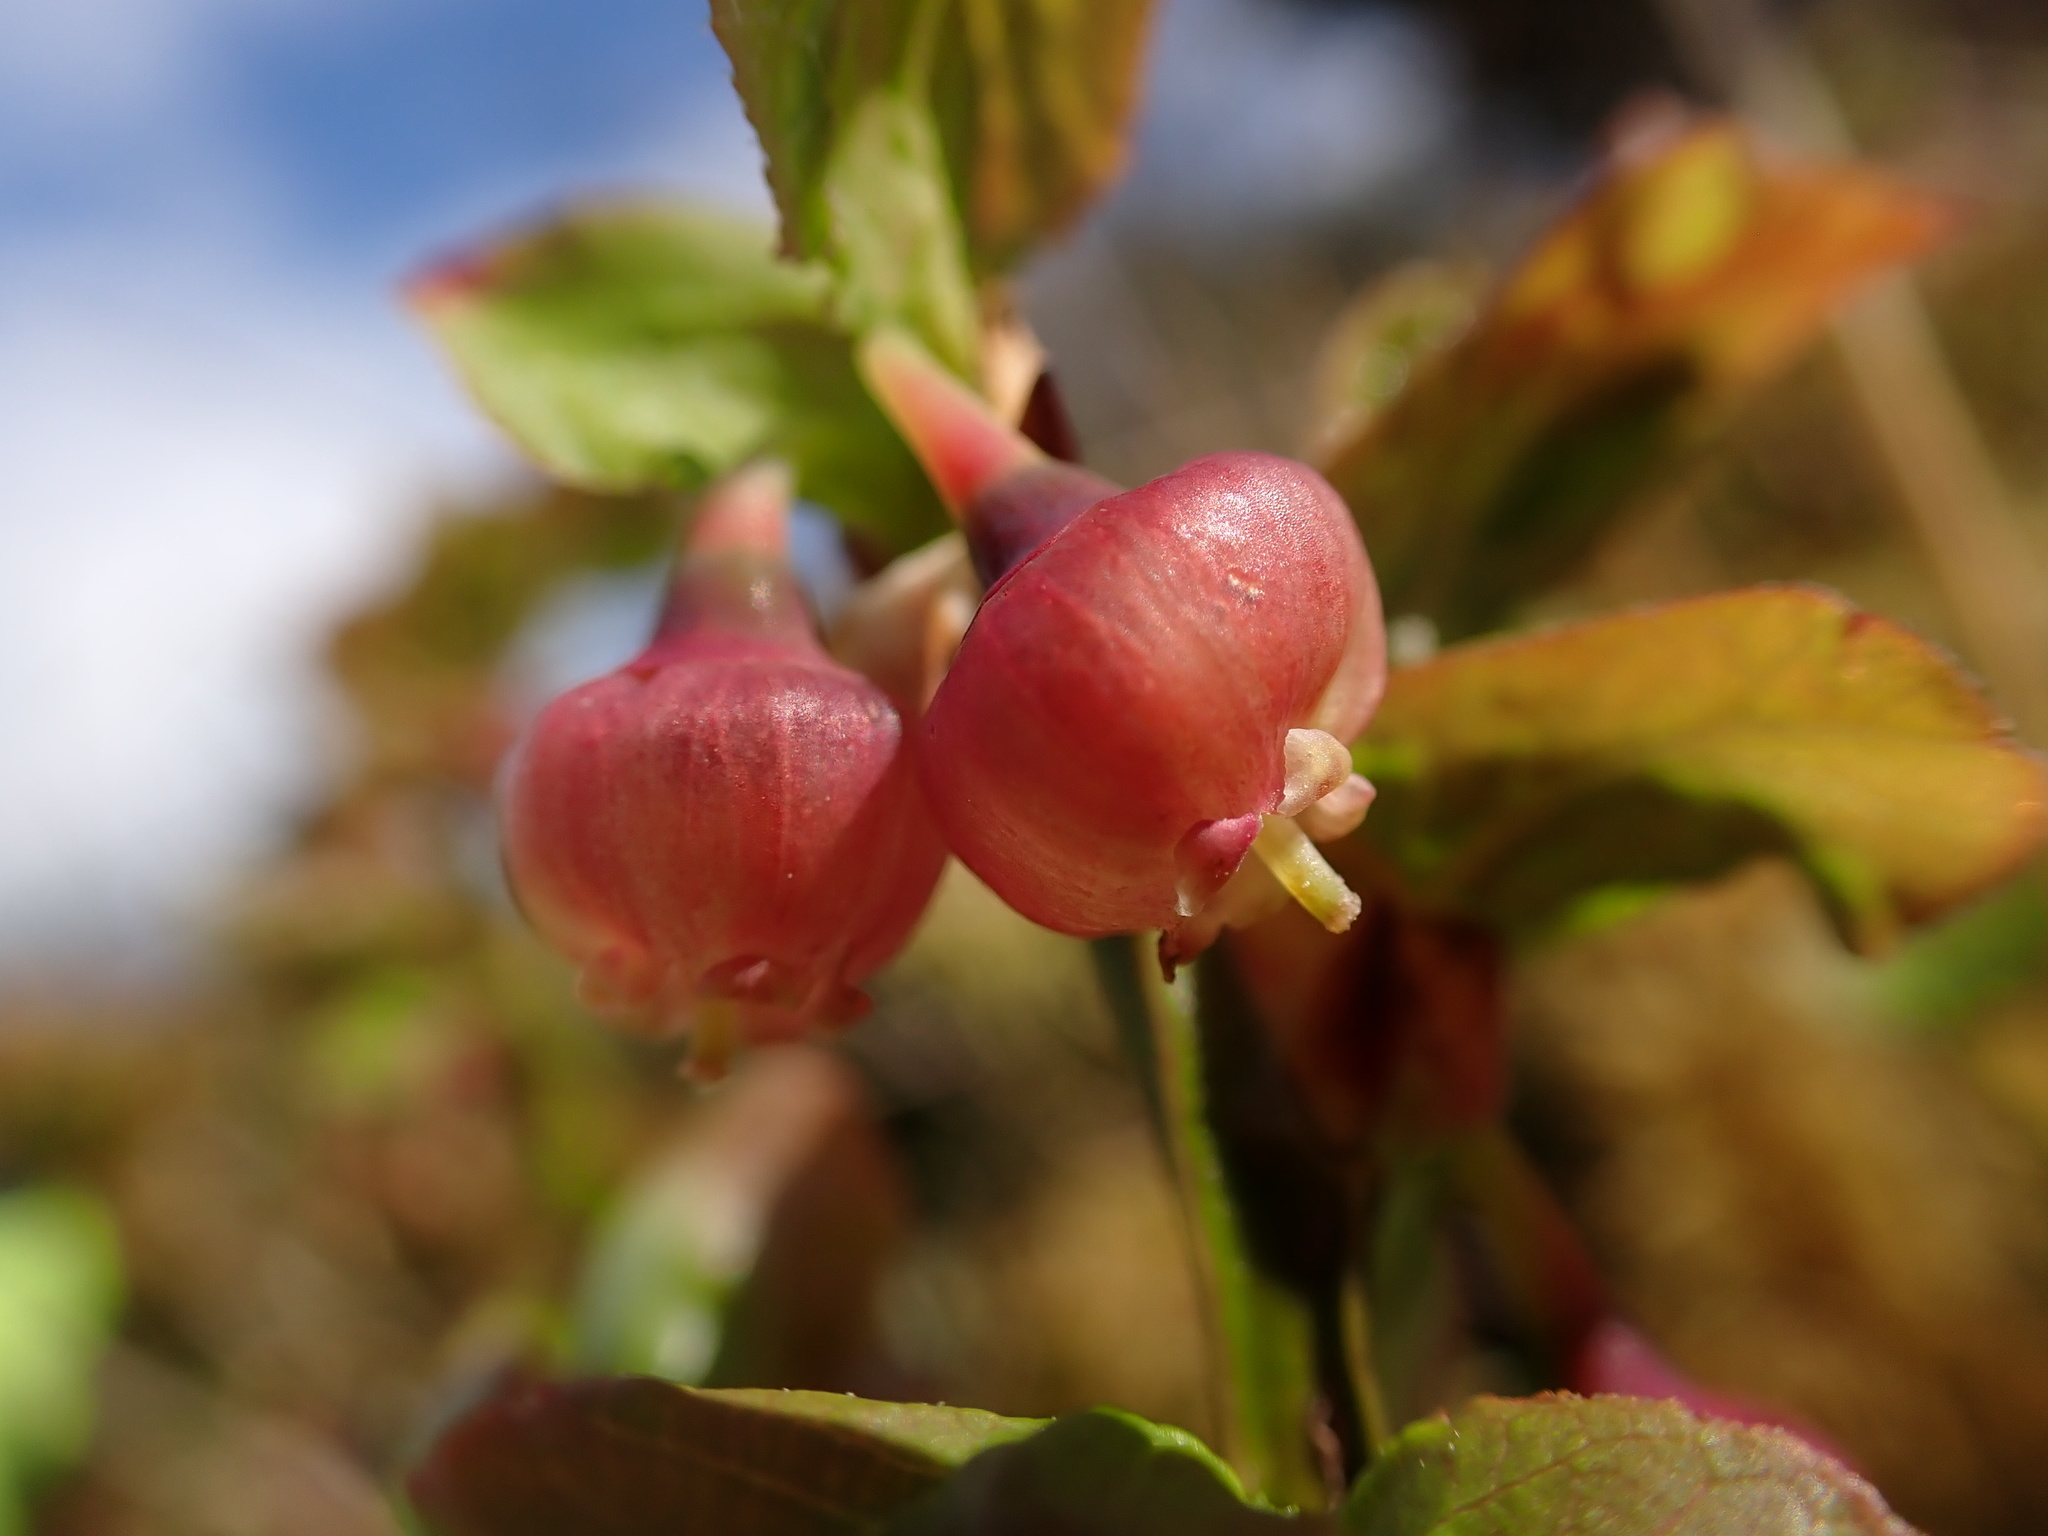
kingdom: Plantae
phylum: Tracheophyta
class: Magnoliopsida
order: Ericales
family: Ericaceae
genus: Vaccinium
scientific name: Vaccinium myrtillus
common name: Bilberry
